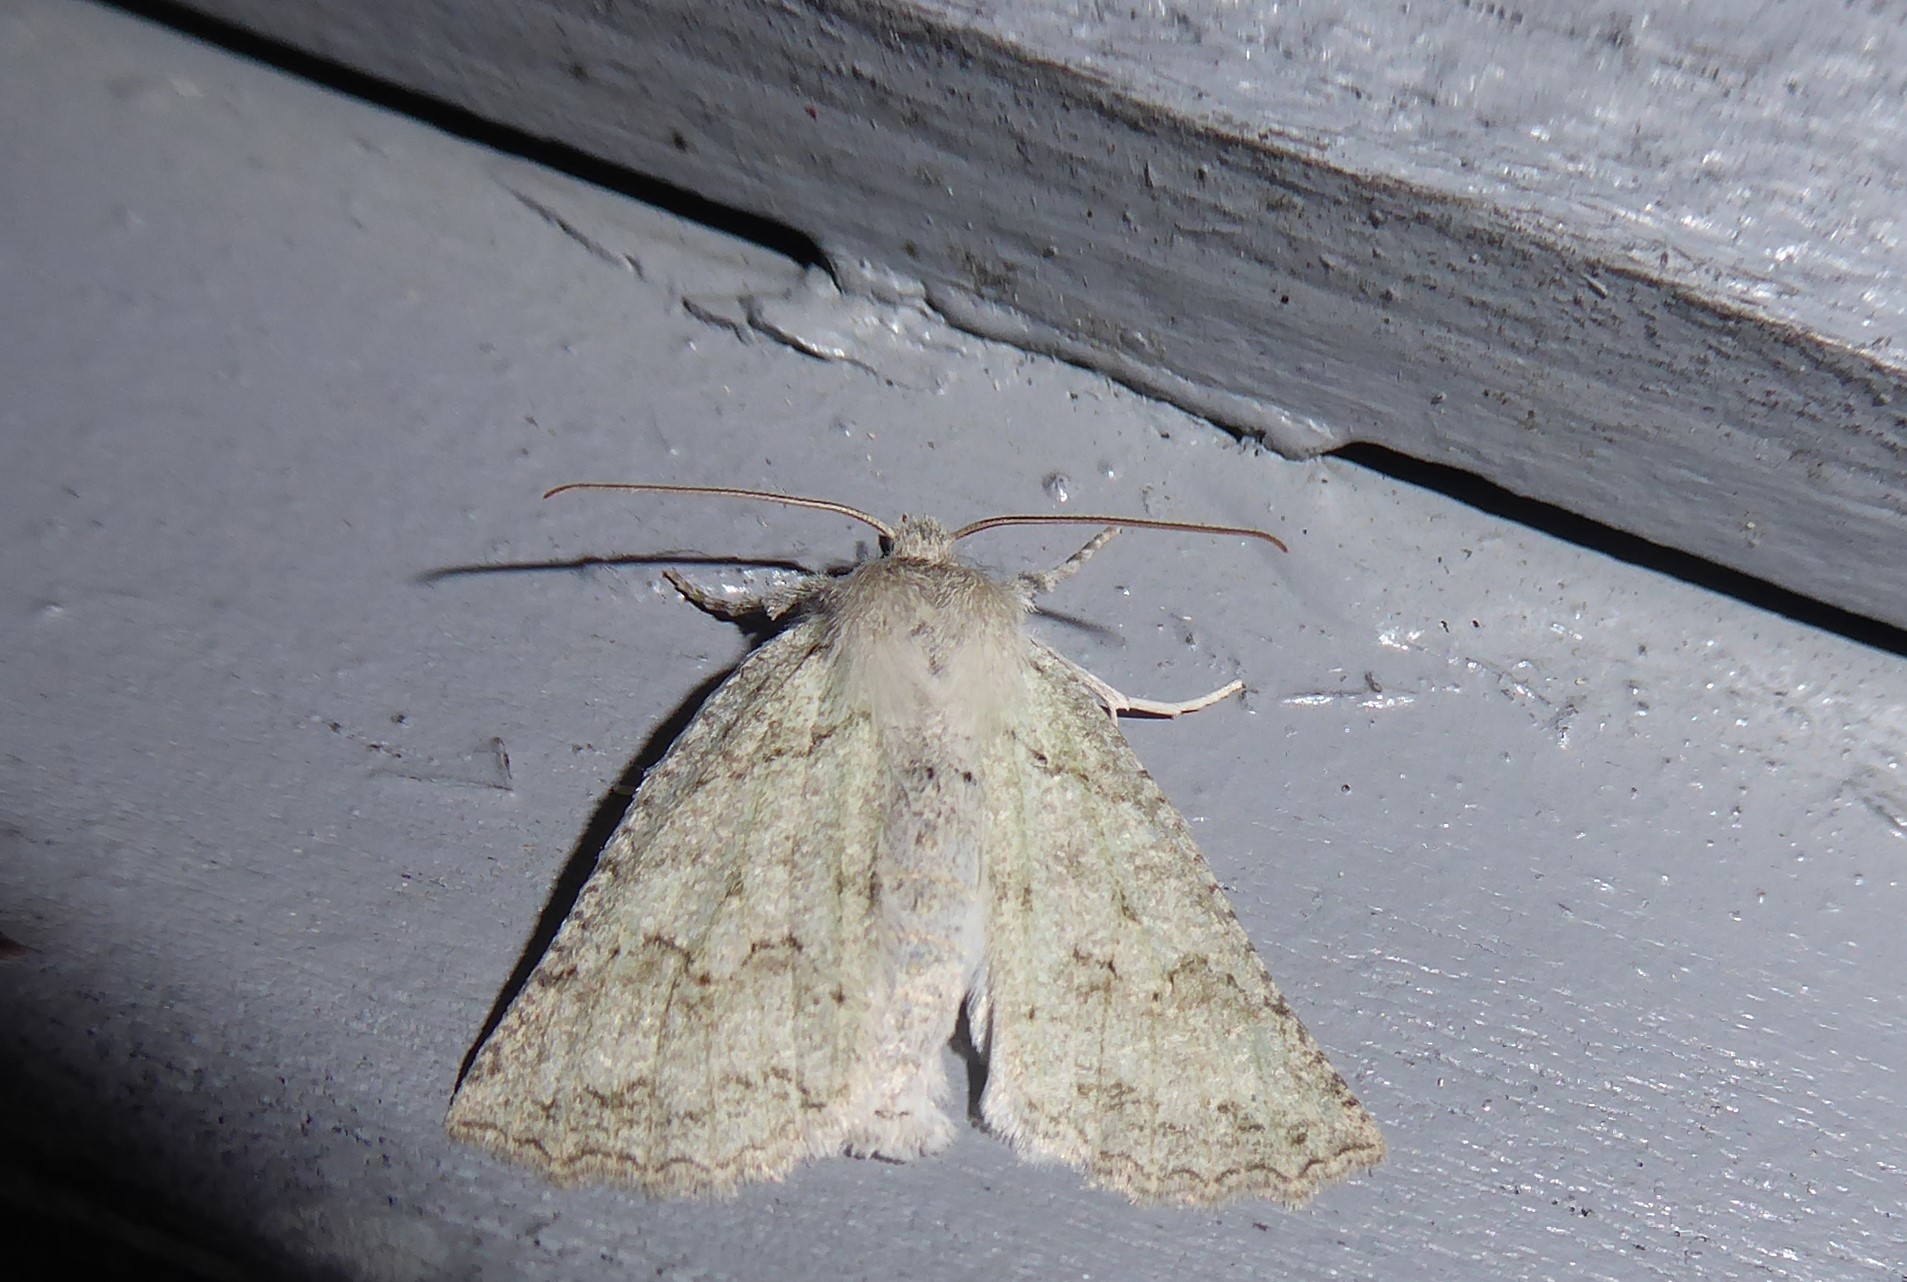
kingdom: Animalia
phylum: Arthropoda
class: Insecta
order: Lepidoptera
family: Geometridae
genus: Declana
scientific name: Declana niveata
